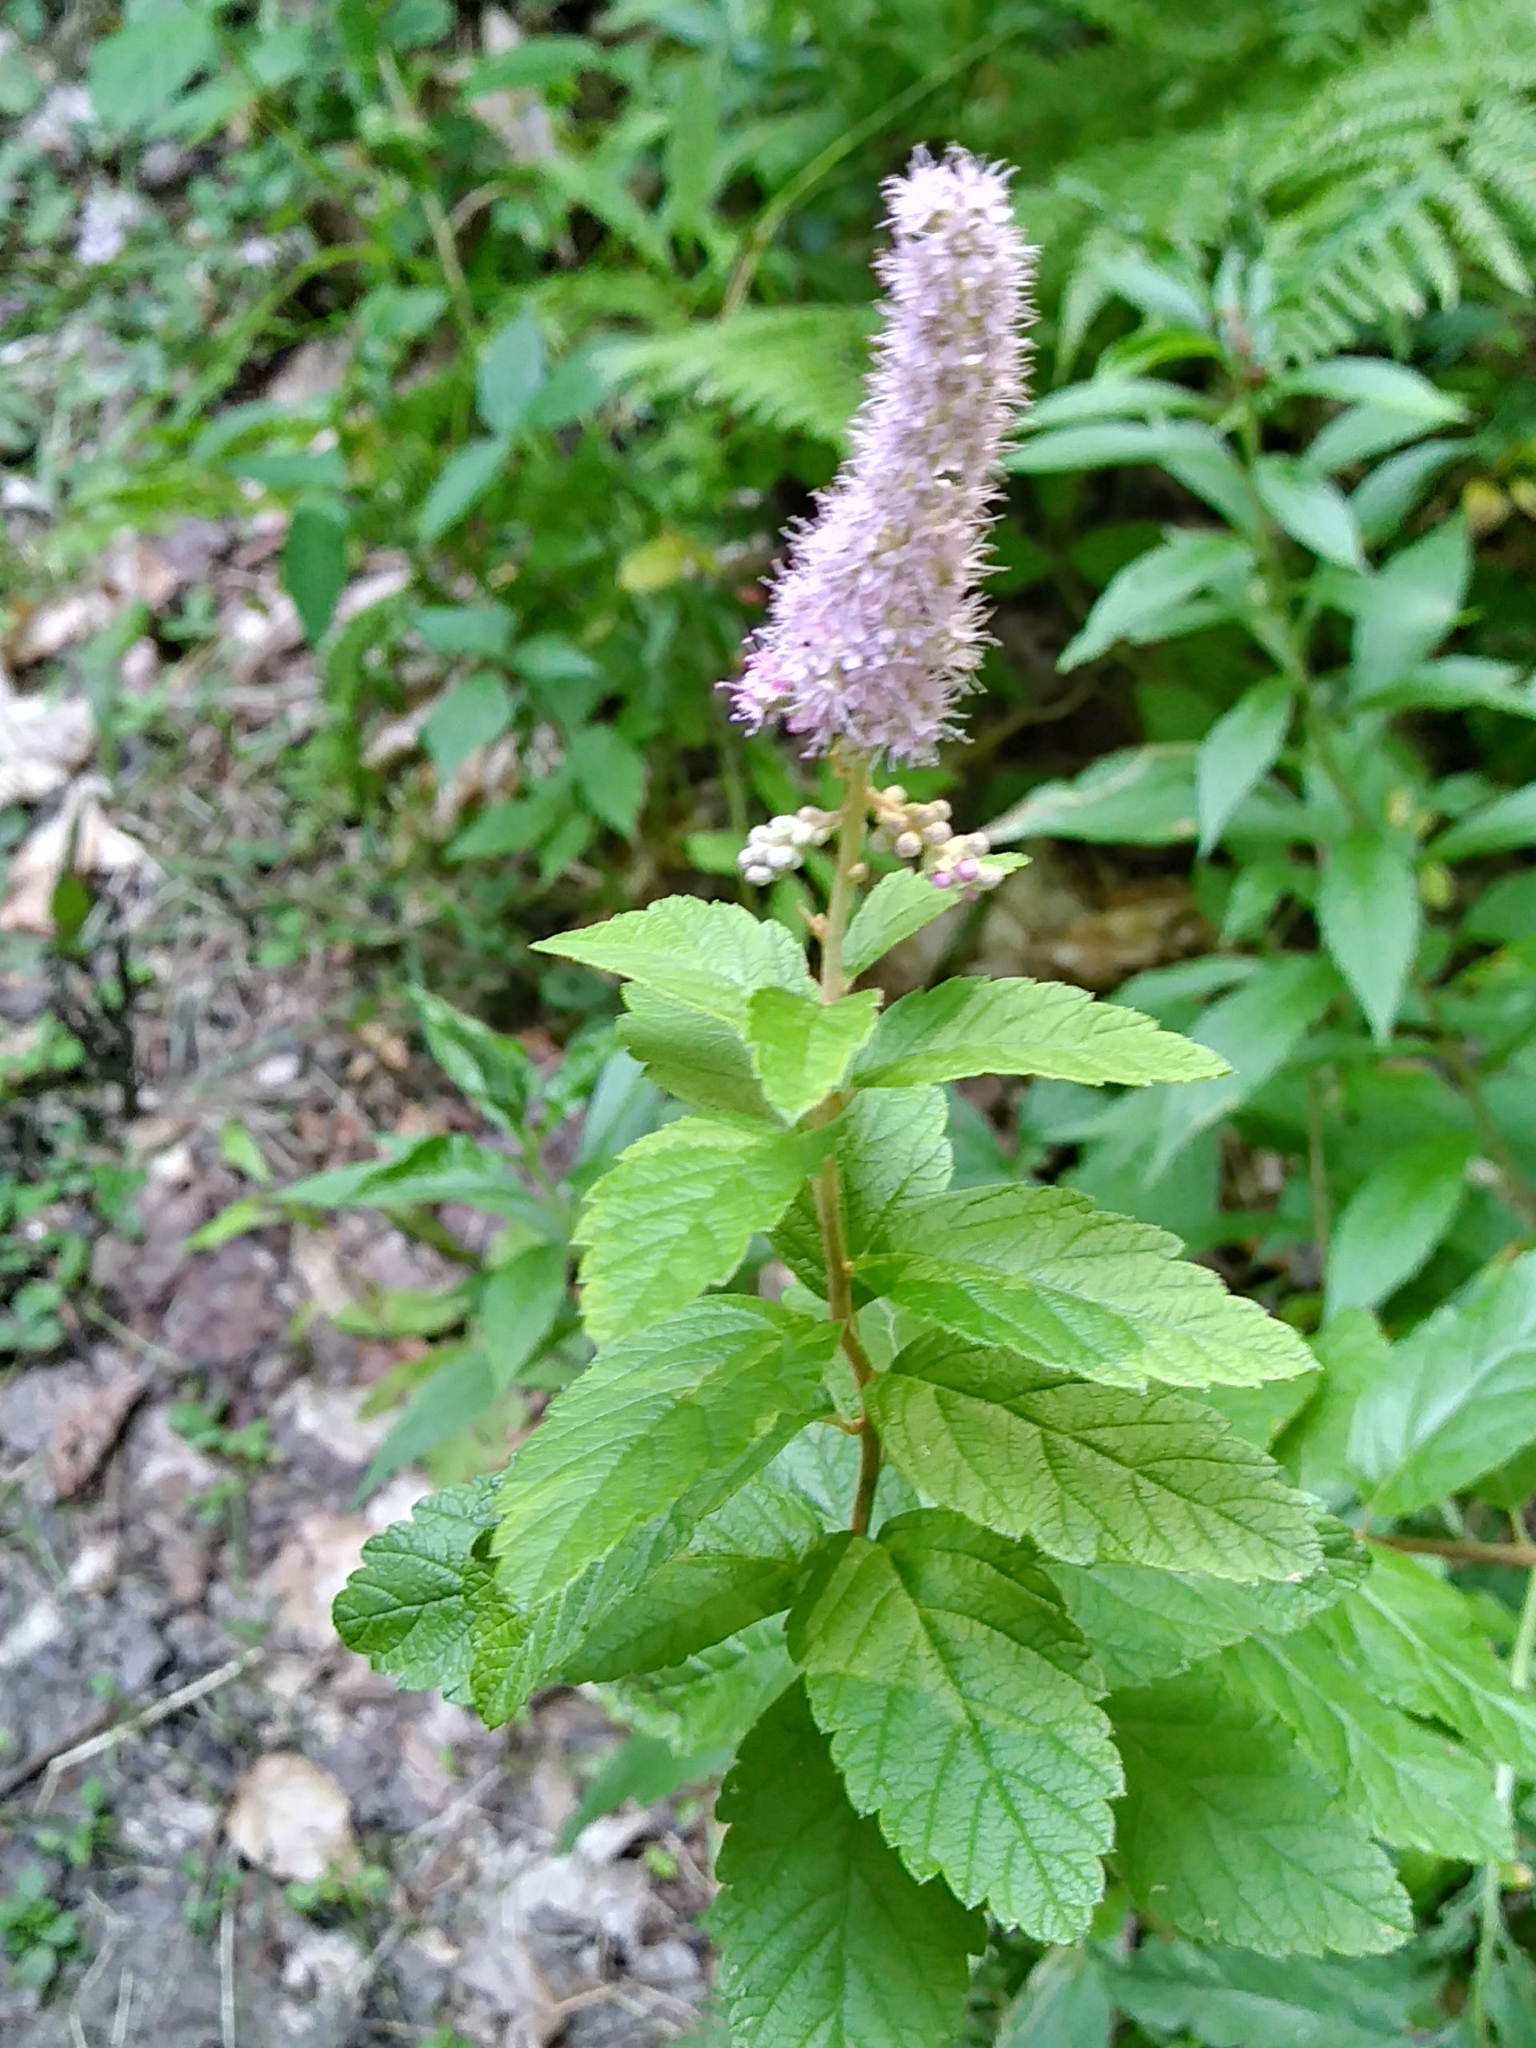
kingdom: Plantae
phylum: Tracheophyta
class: Magnoliopsida
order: Rosales
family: Rosaceae
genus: Spiraea
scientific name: Spiraea tomentosa
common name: Hardhack
